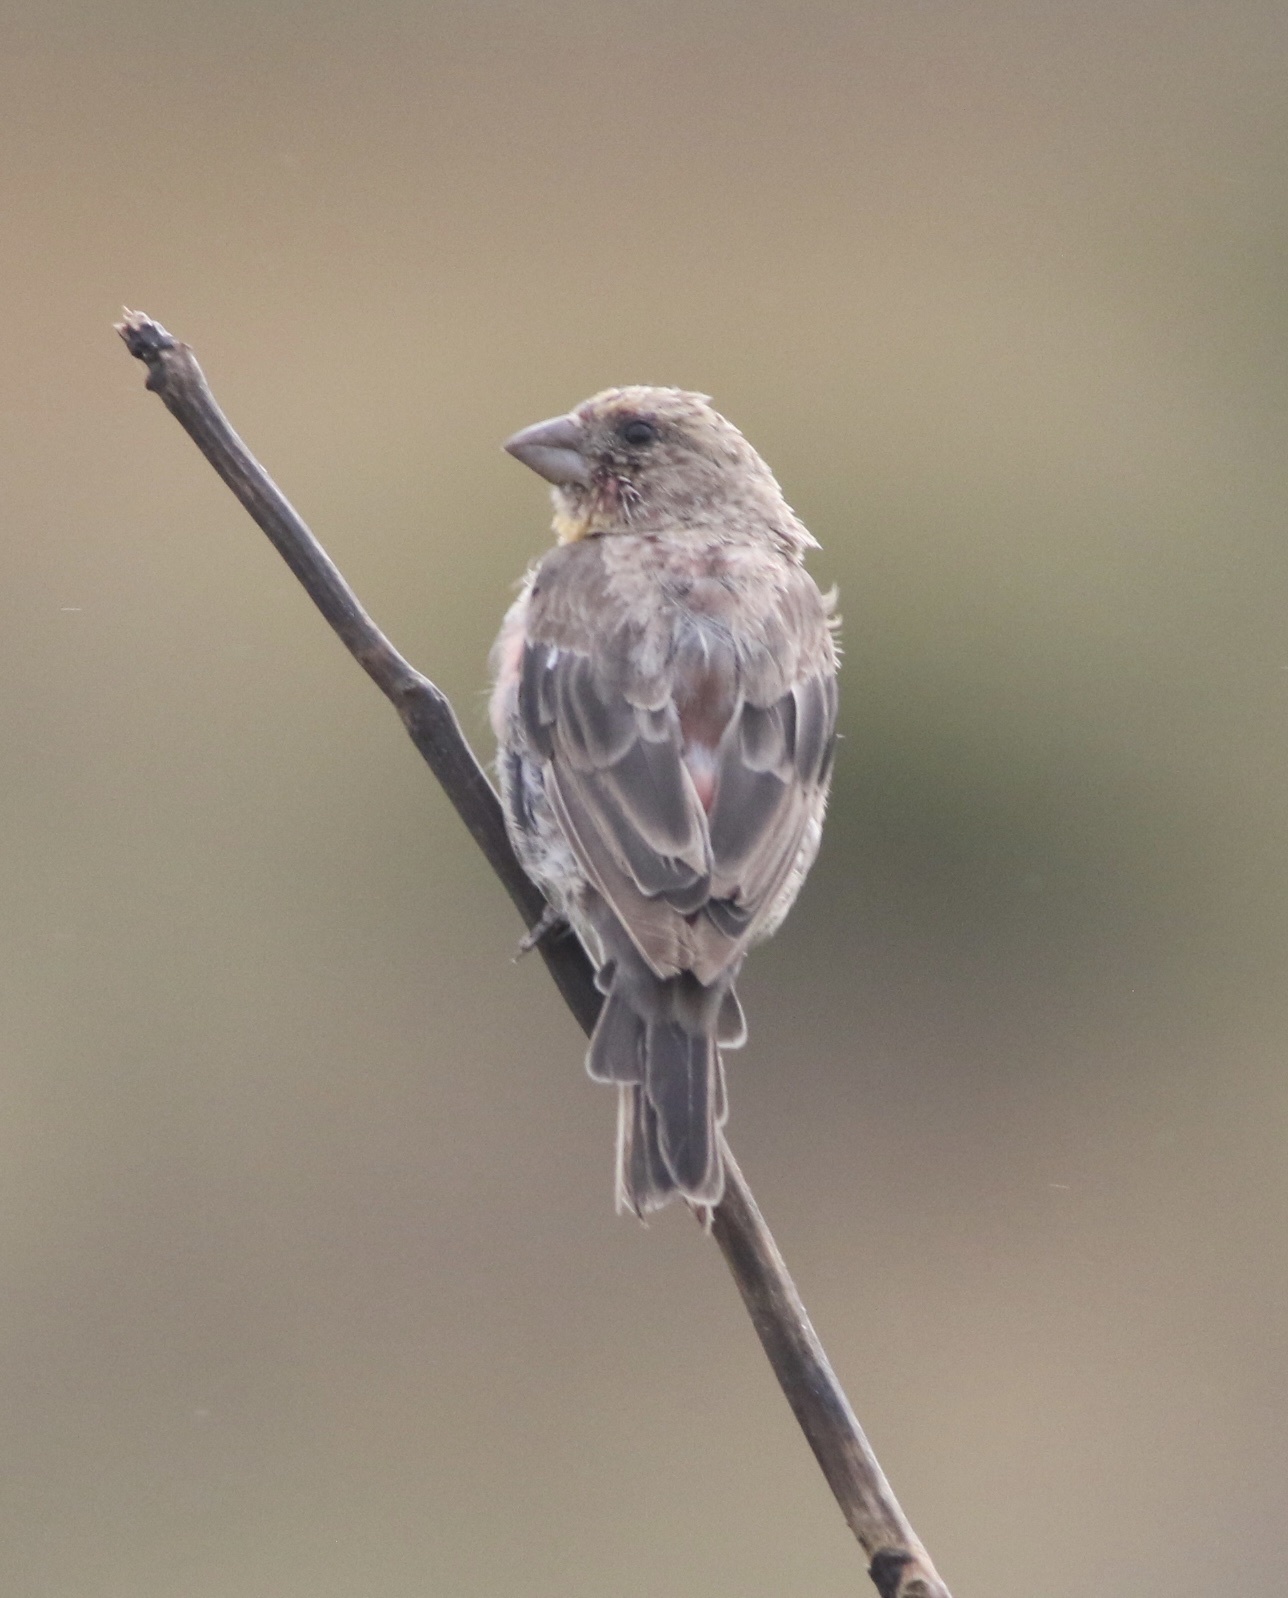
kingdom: Animalia
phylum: Chordata
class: Aves
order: Passeriformes
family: Fringillidae
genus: Haemorhous
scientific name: Haemorhous mexicanus
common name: House finch
